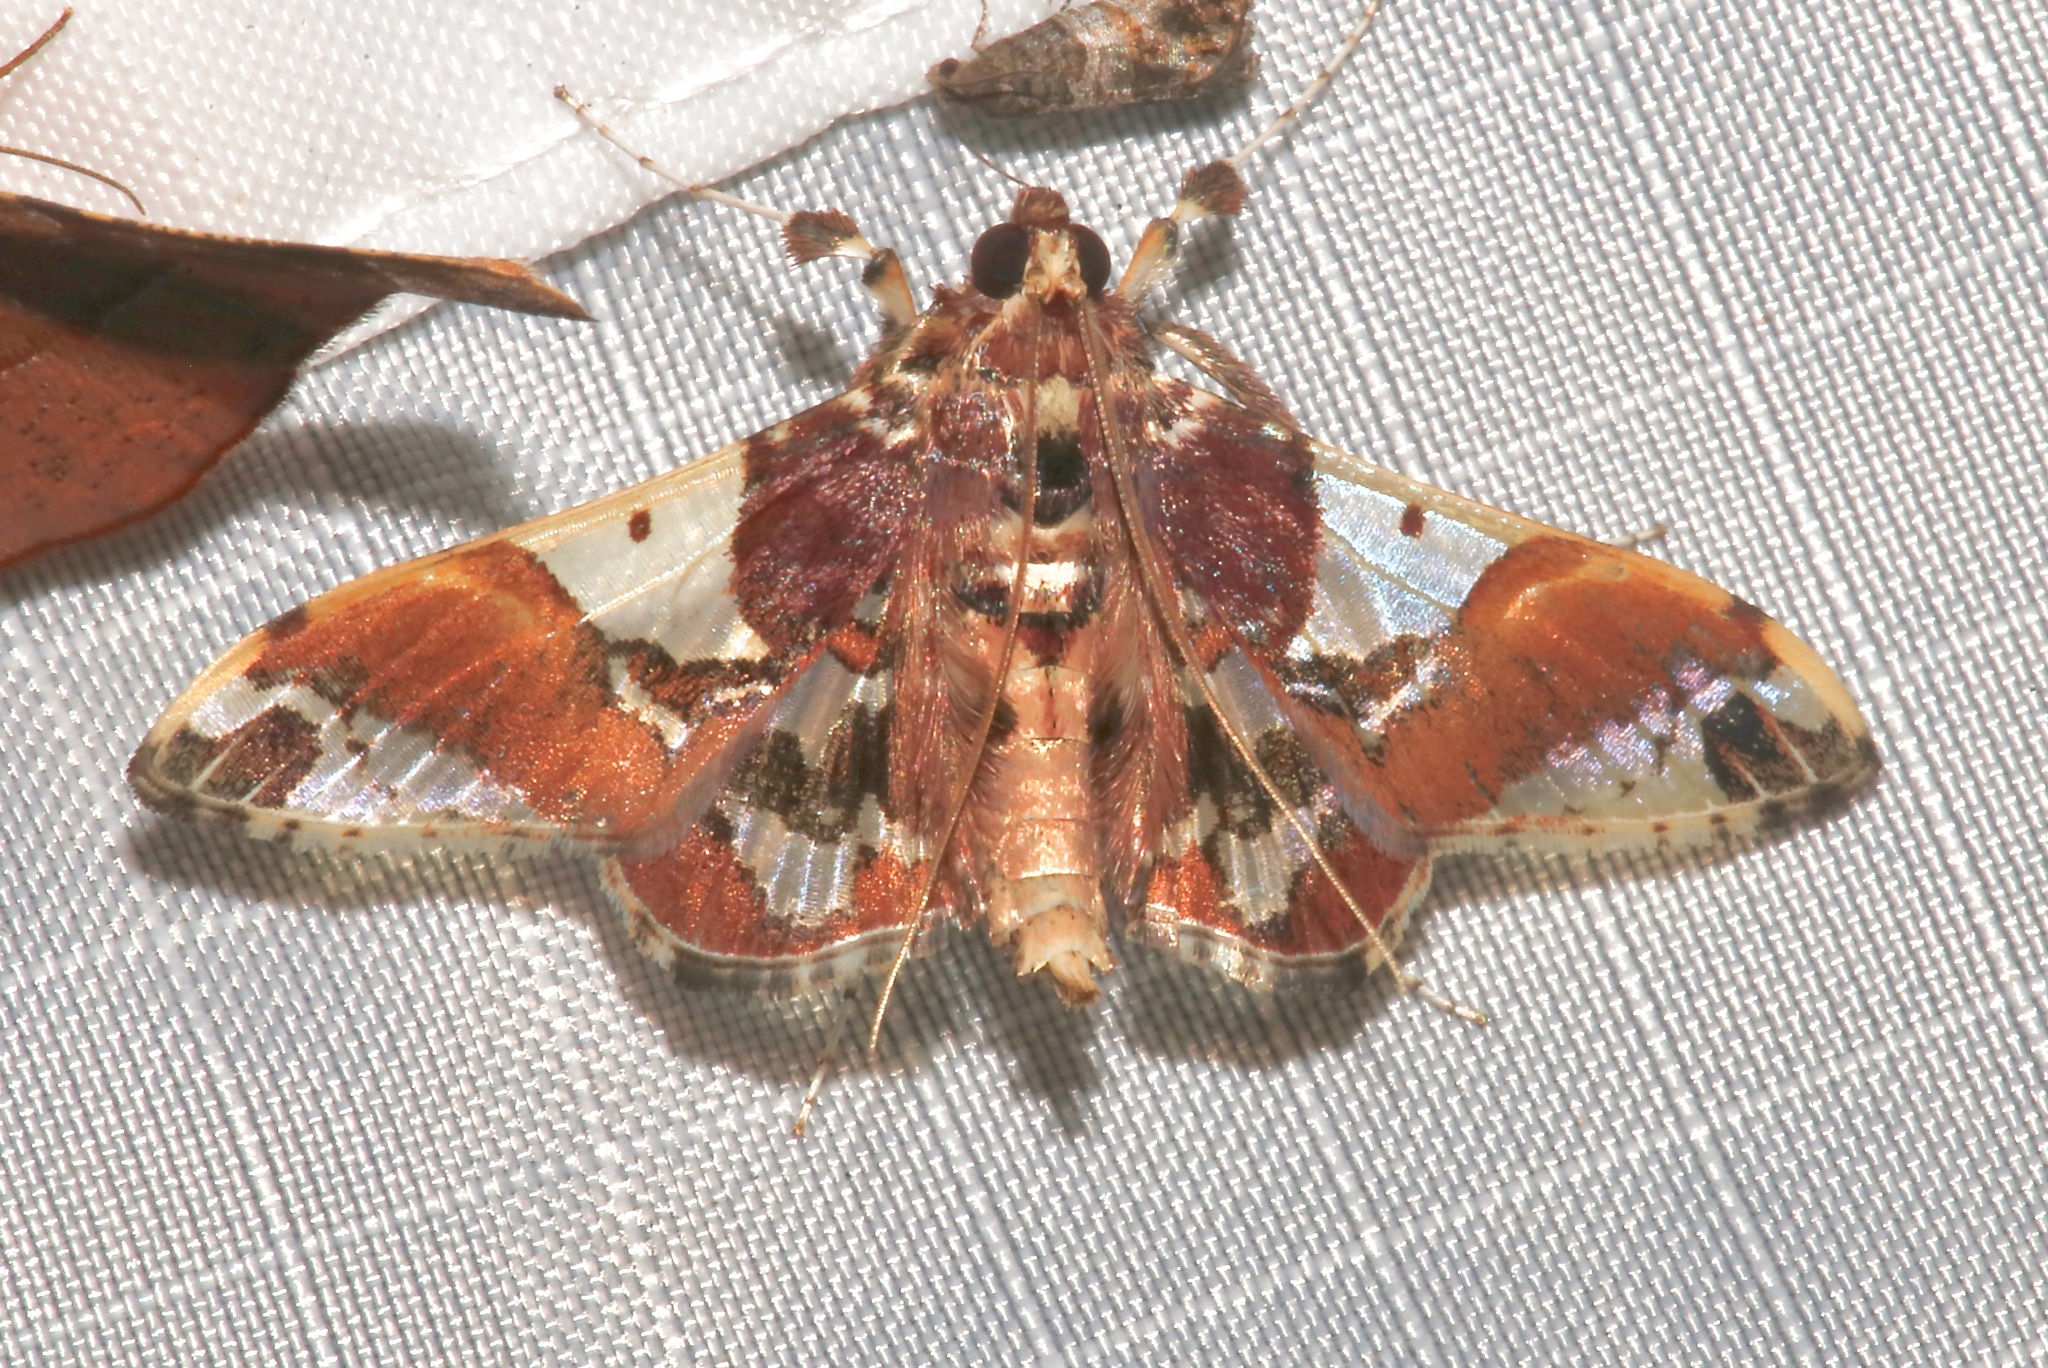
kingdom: Animalia
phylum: Arthropoda
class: Insecta
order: Lepidoptera
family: Crambidae
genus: Syngamilyta
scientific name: Syngamilyta apicolor
